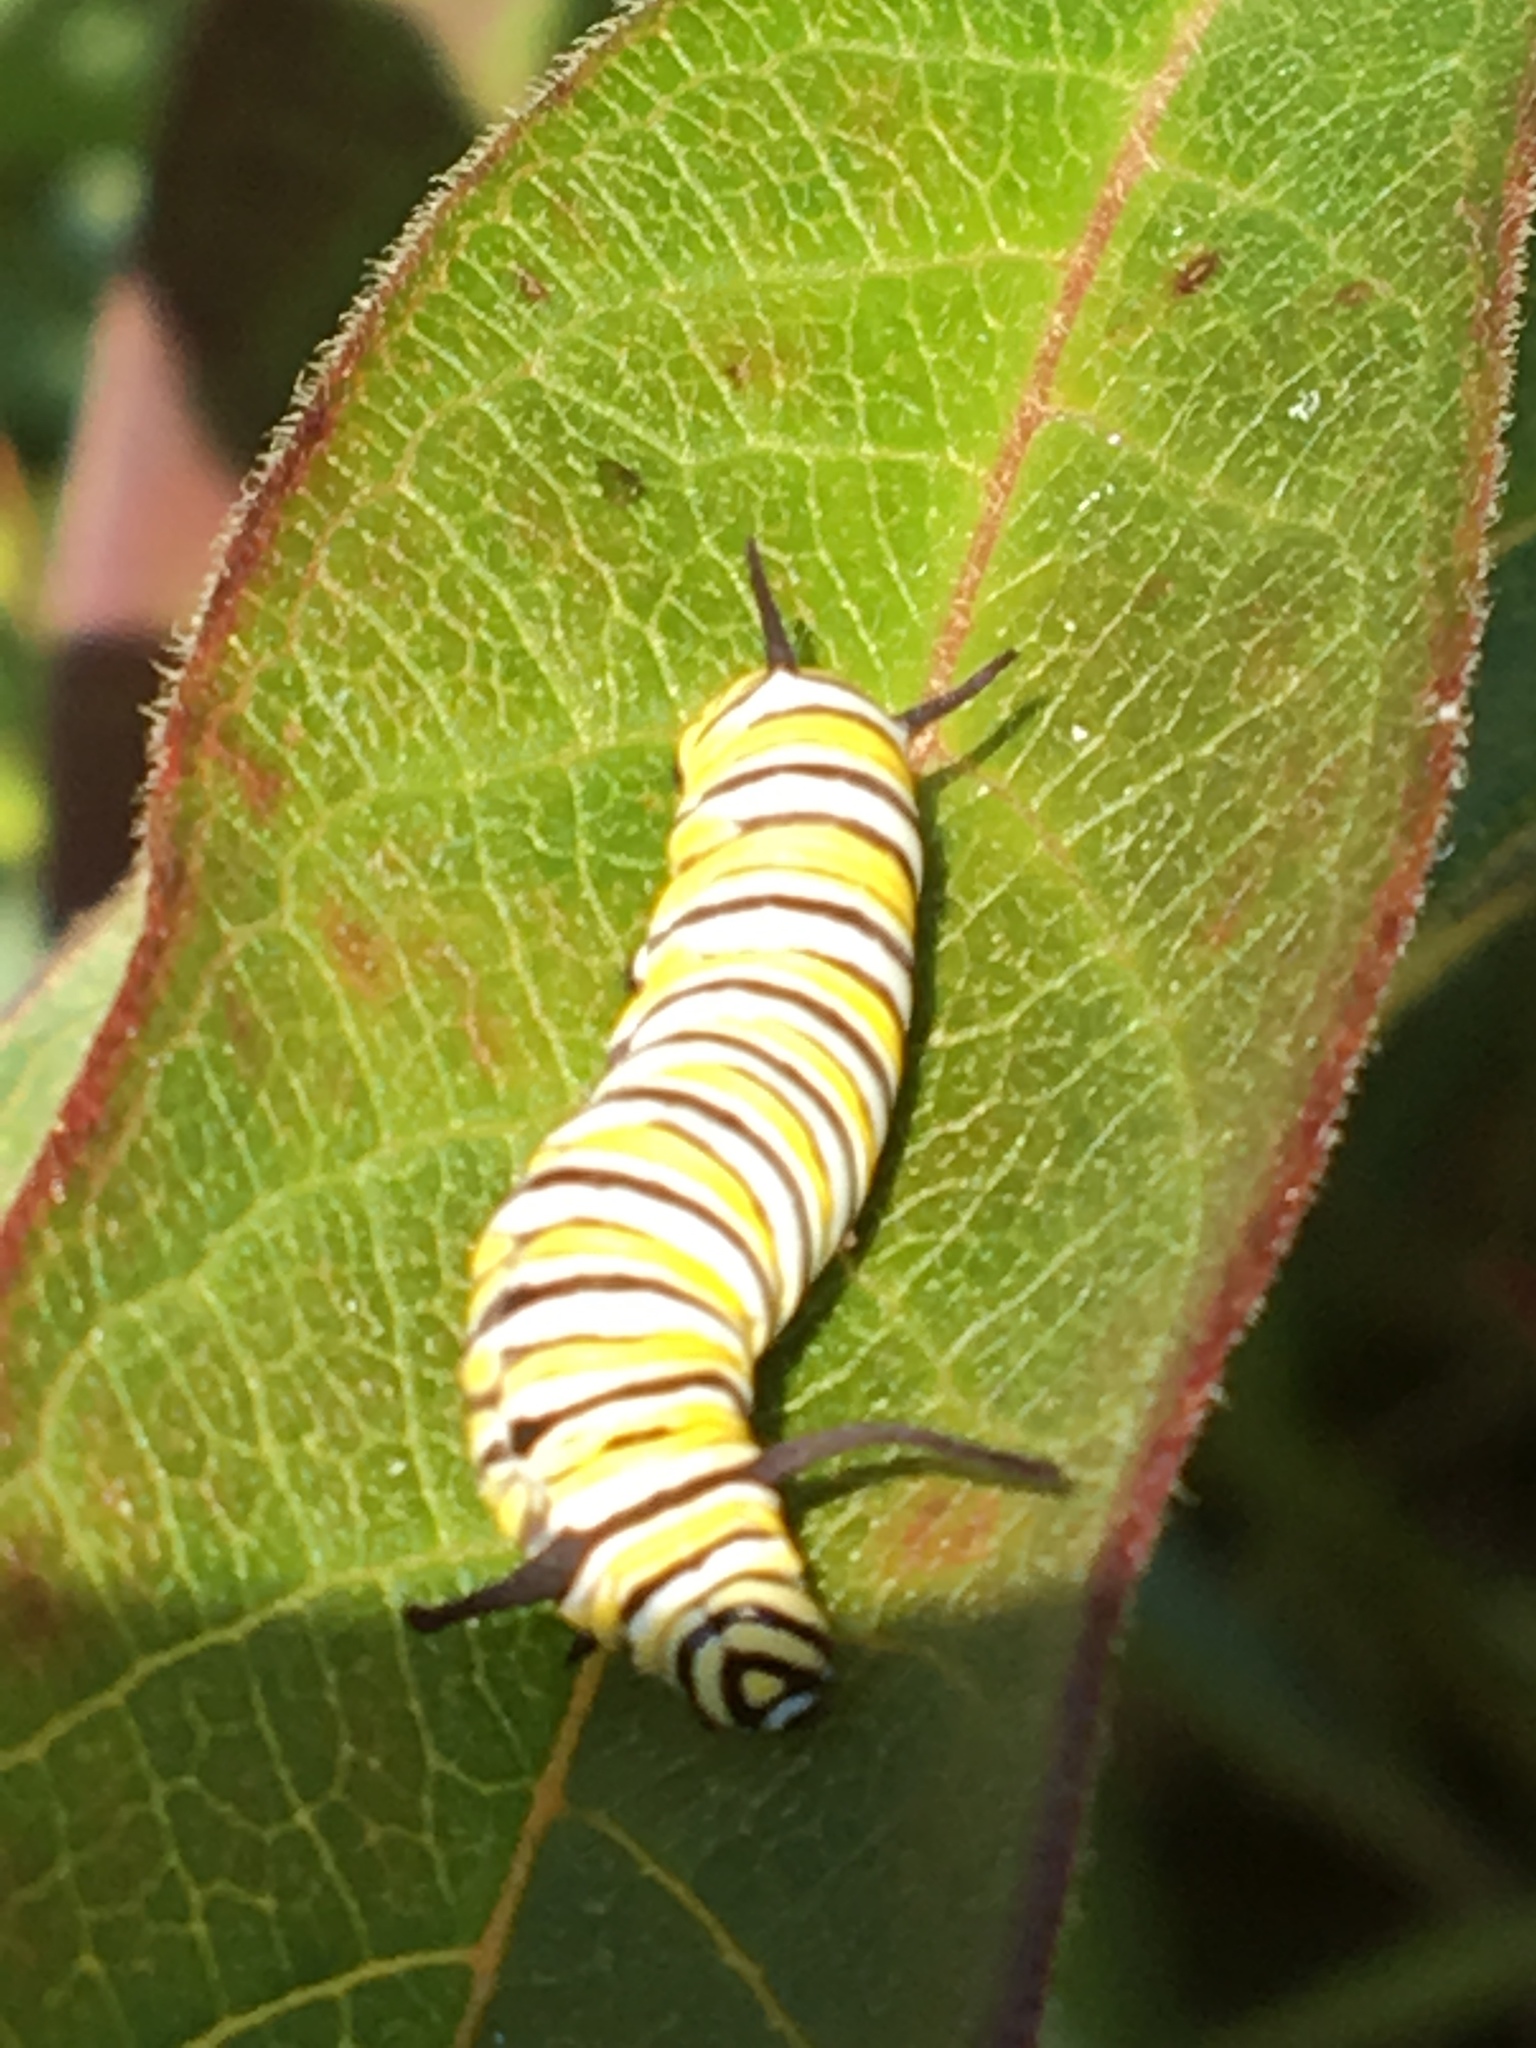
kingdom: Animalia
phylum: Arthropoda
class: Insecta
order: Lepidoptera
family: Nymphalidae
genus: Danaus
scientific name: Danaus plexippus
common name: Monarch
